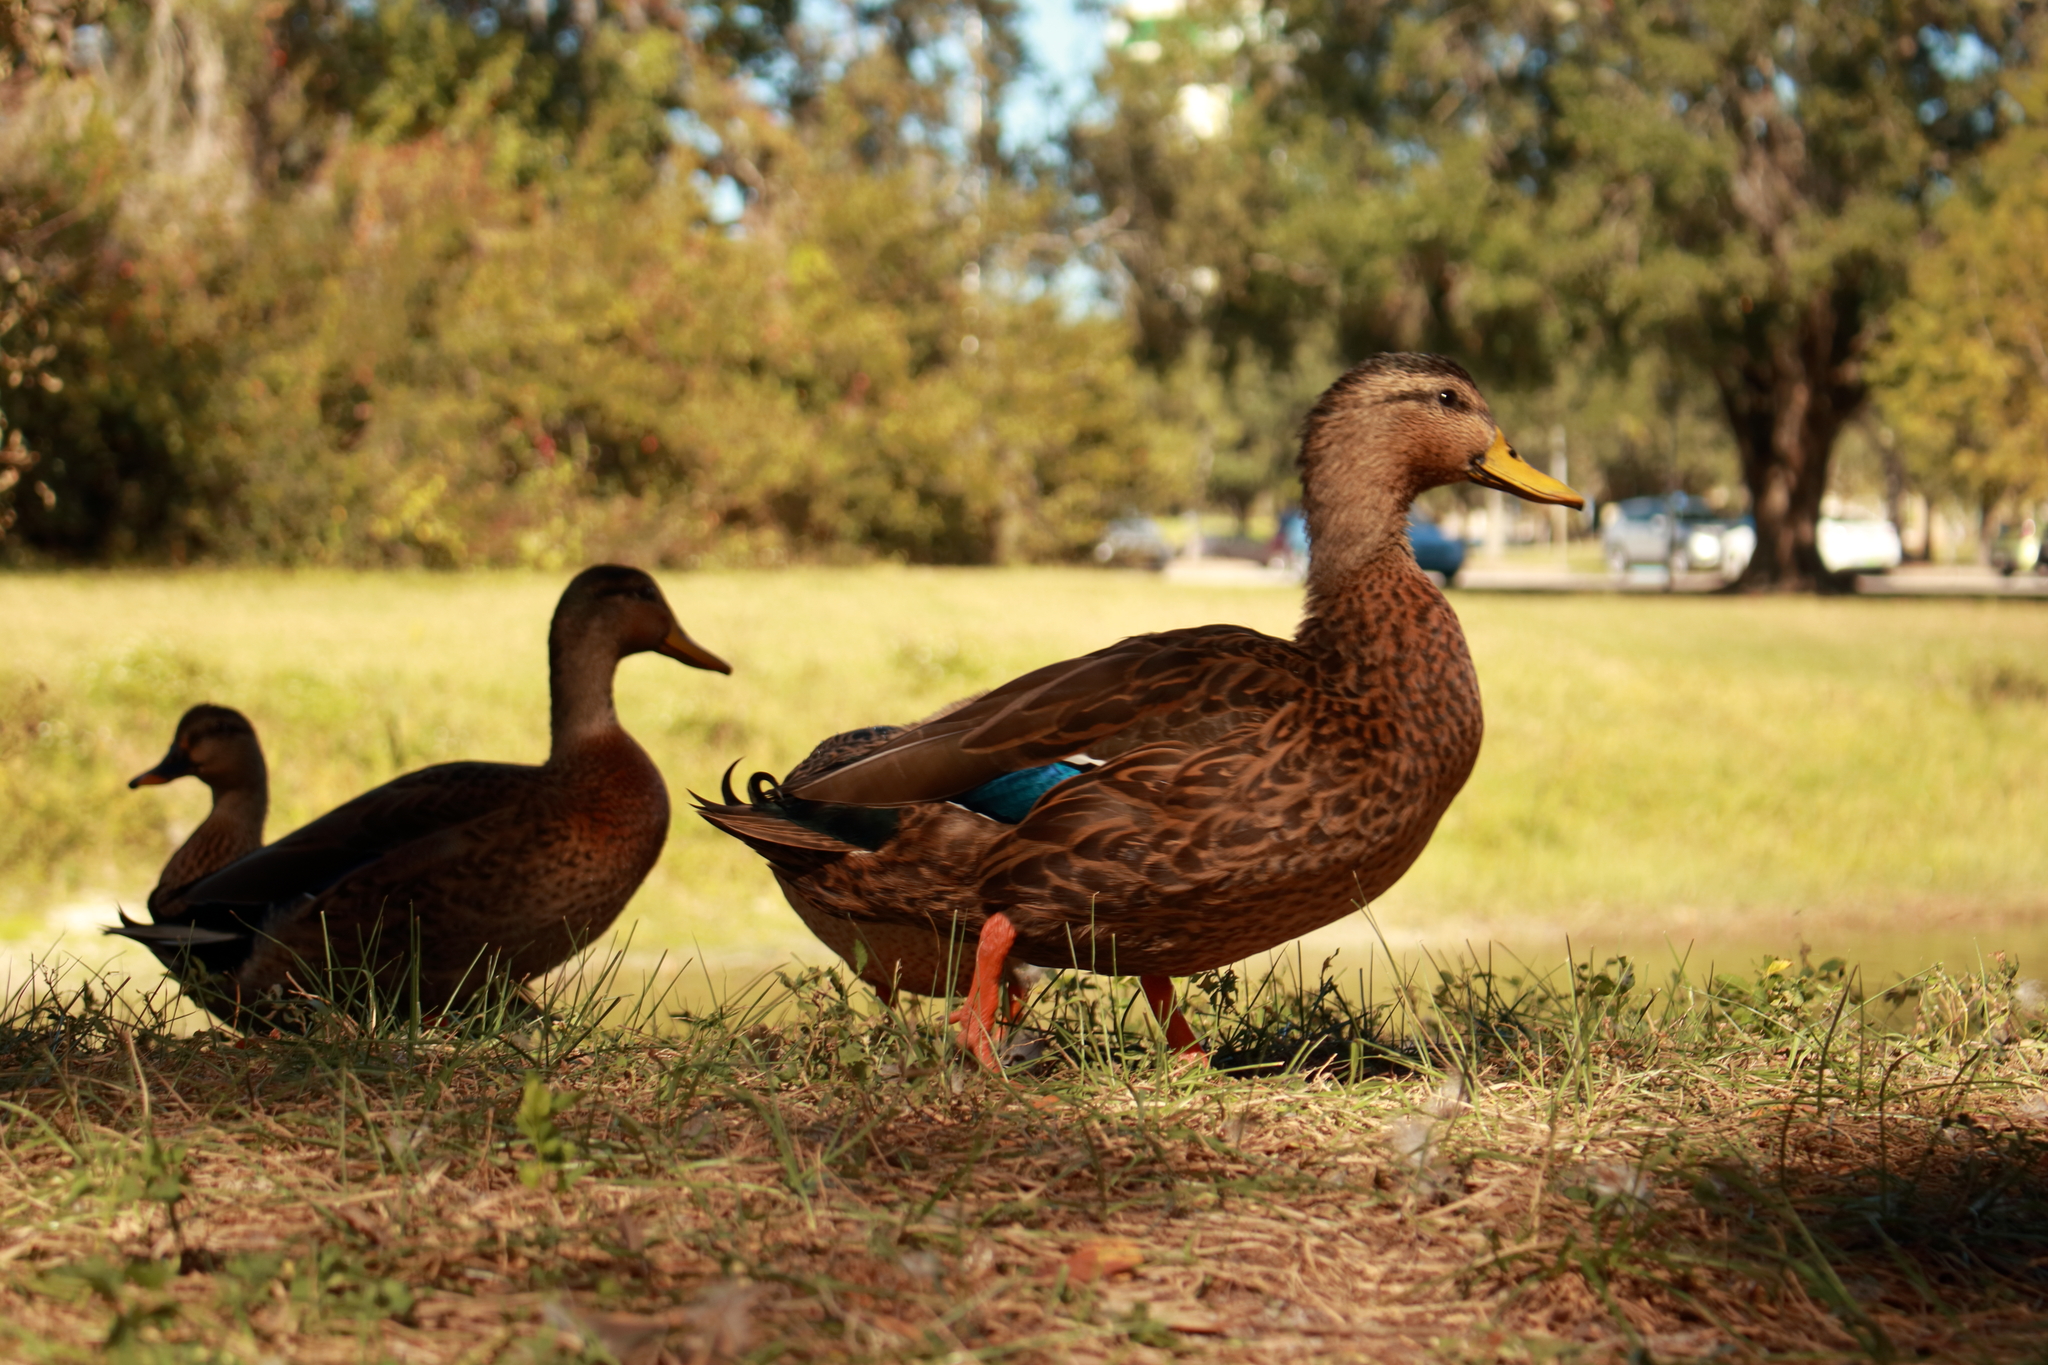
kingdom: Animalia
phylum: Chordata
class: Aves
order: Anseriformes
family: Anatidae
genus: Anas
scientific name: Anas
